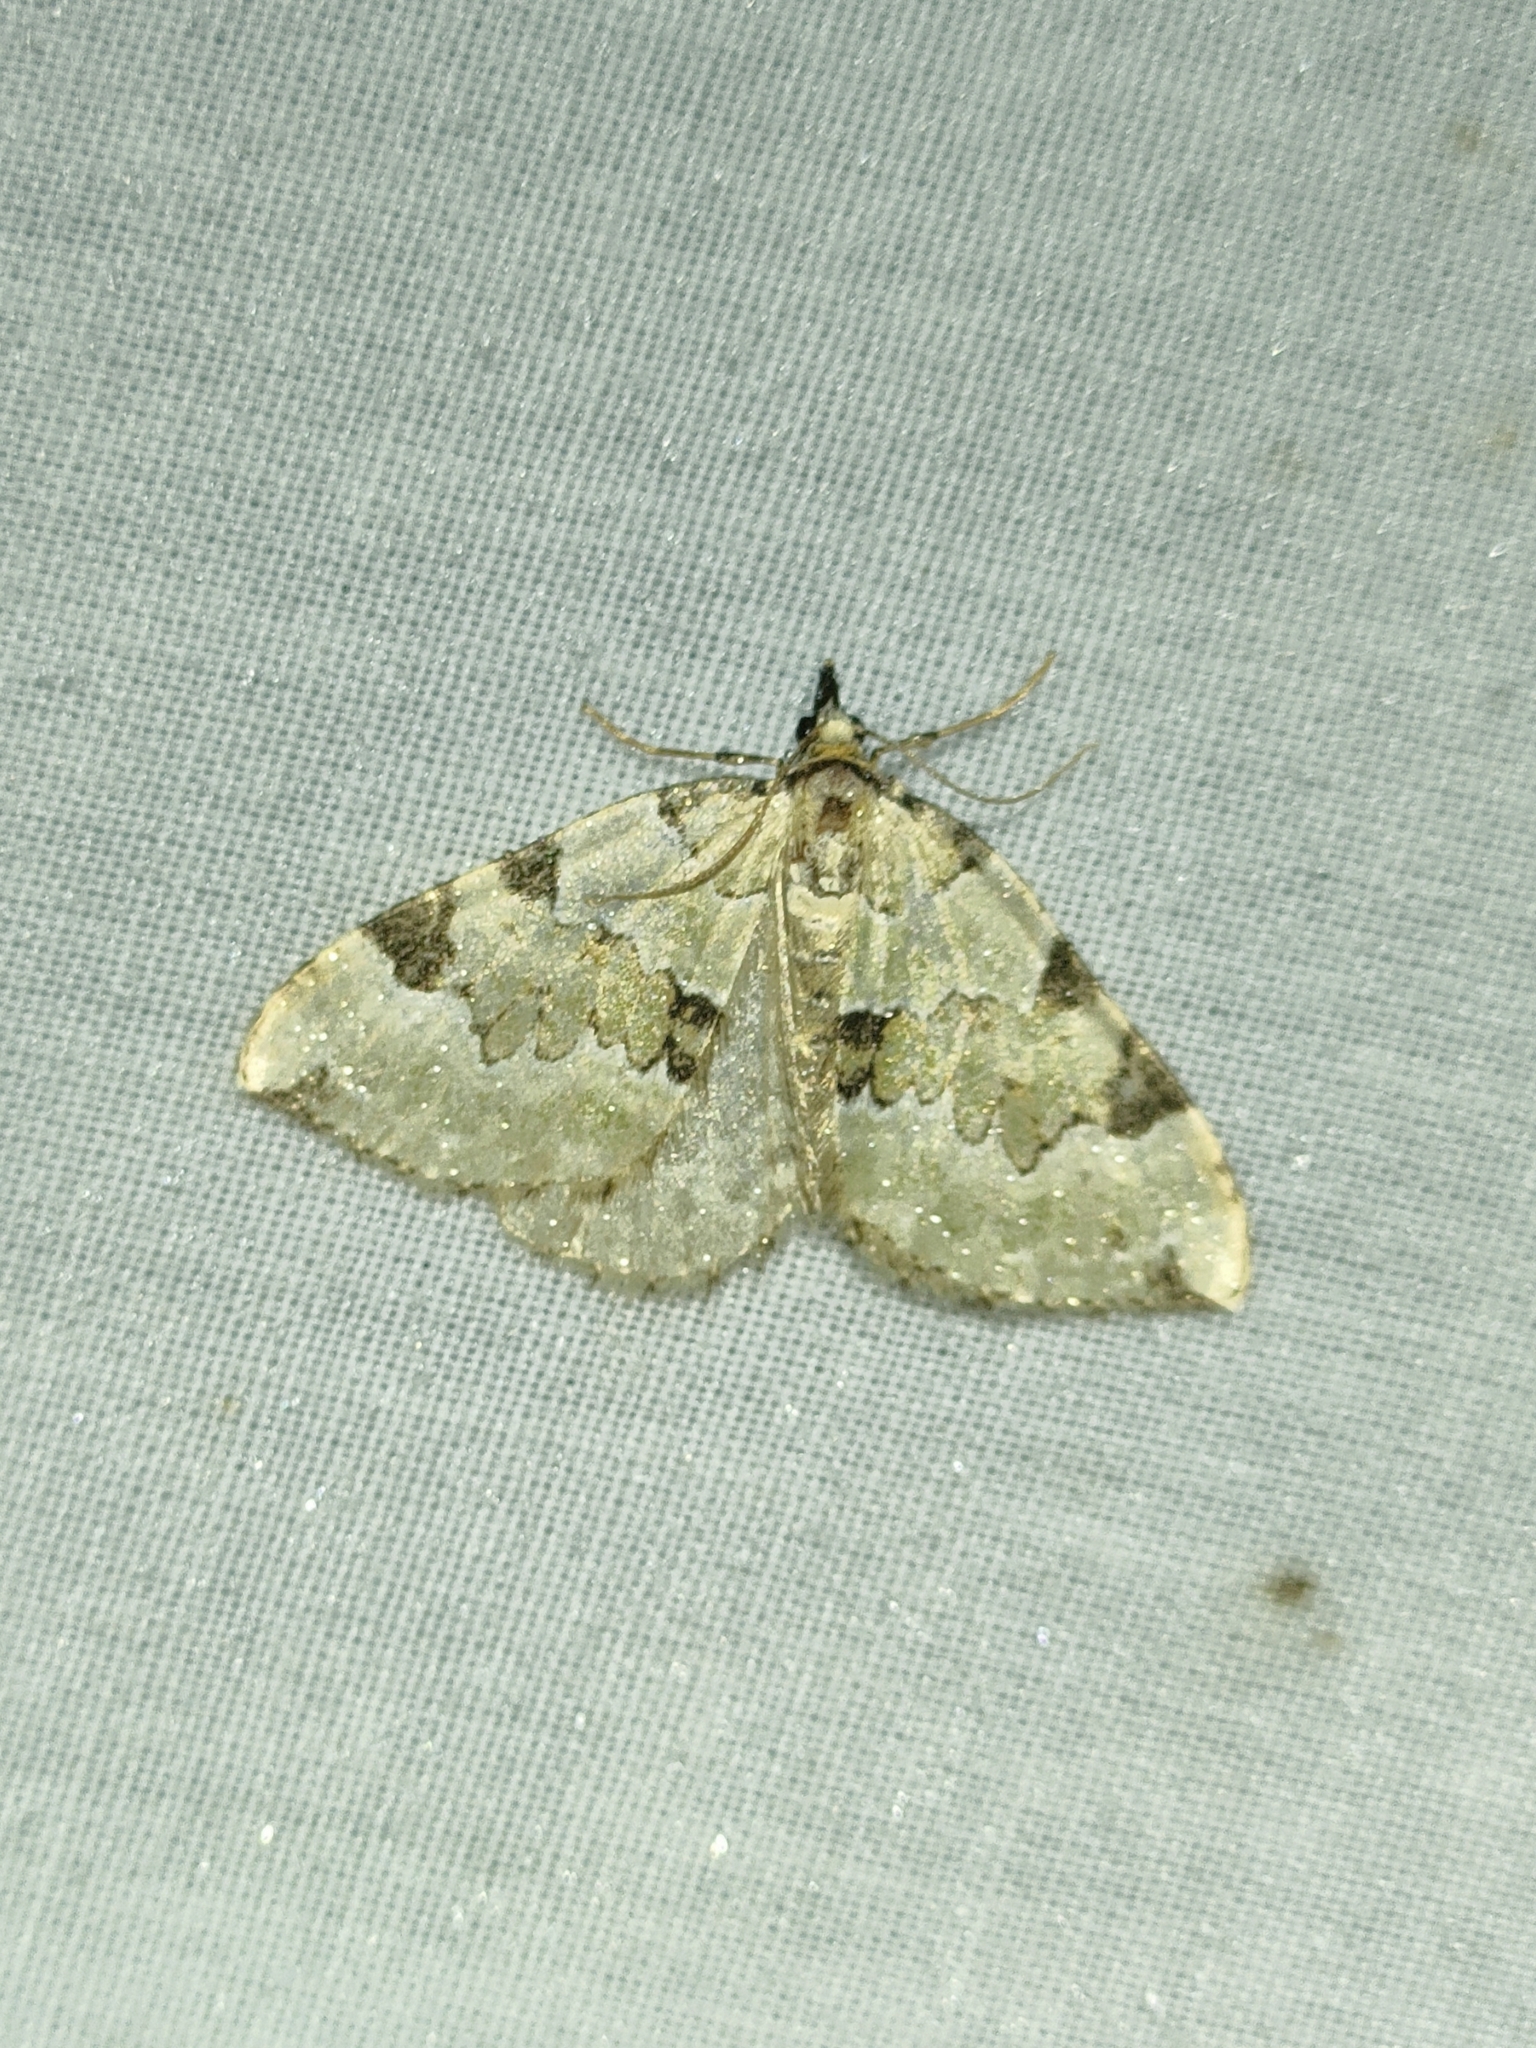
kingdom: Animalia
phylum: Arthropoda
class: Insecta
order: Lepidoptera
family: Geometridae
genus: Colostygia
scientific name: Colostygia pectinataria
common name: Green carpet
